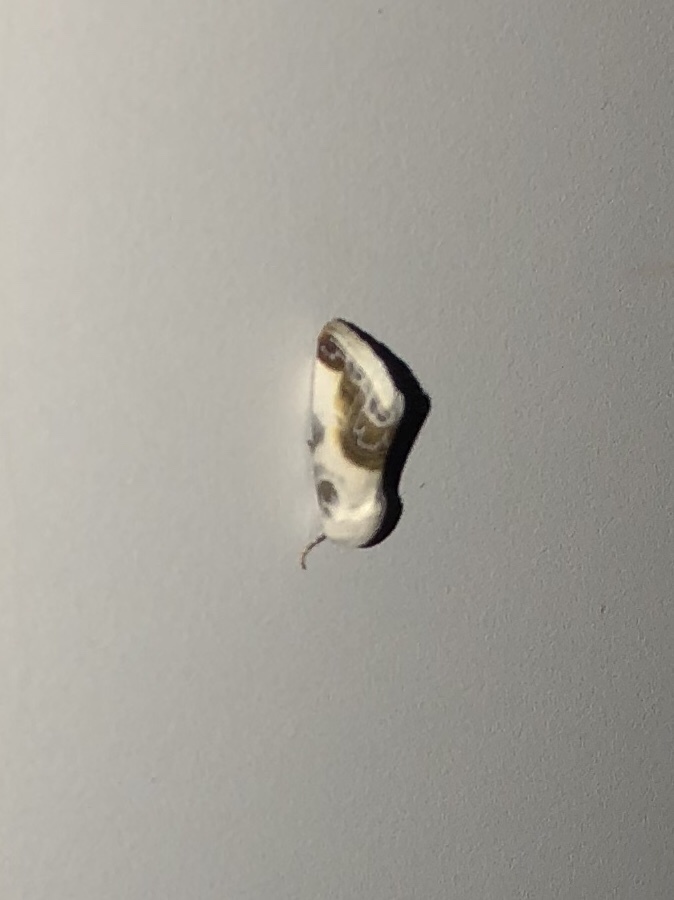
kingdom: Animalia
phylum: Arthropoda
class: Insecta
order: Lepidoptera
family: Noctuidae
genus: Acontia
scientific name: Acontia cretata
